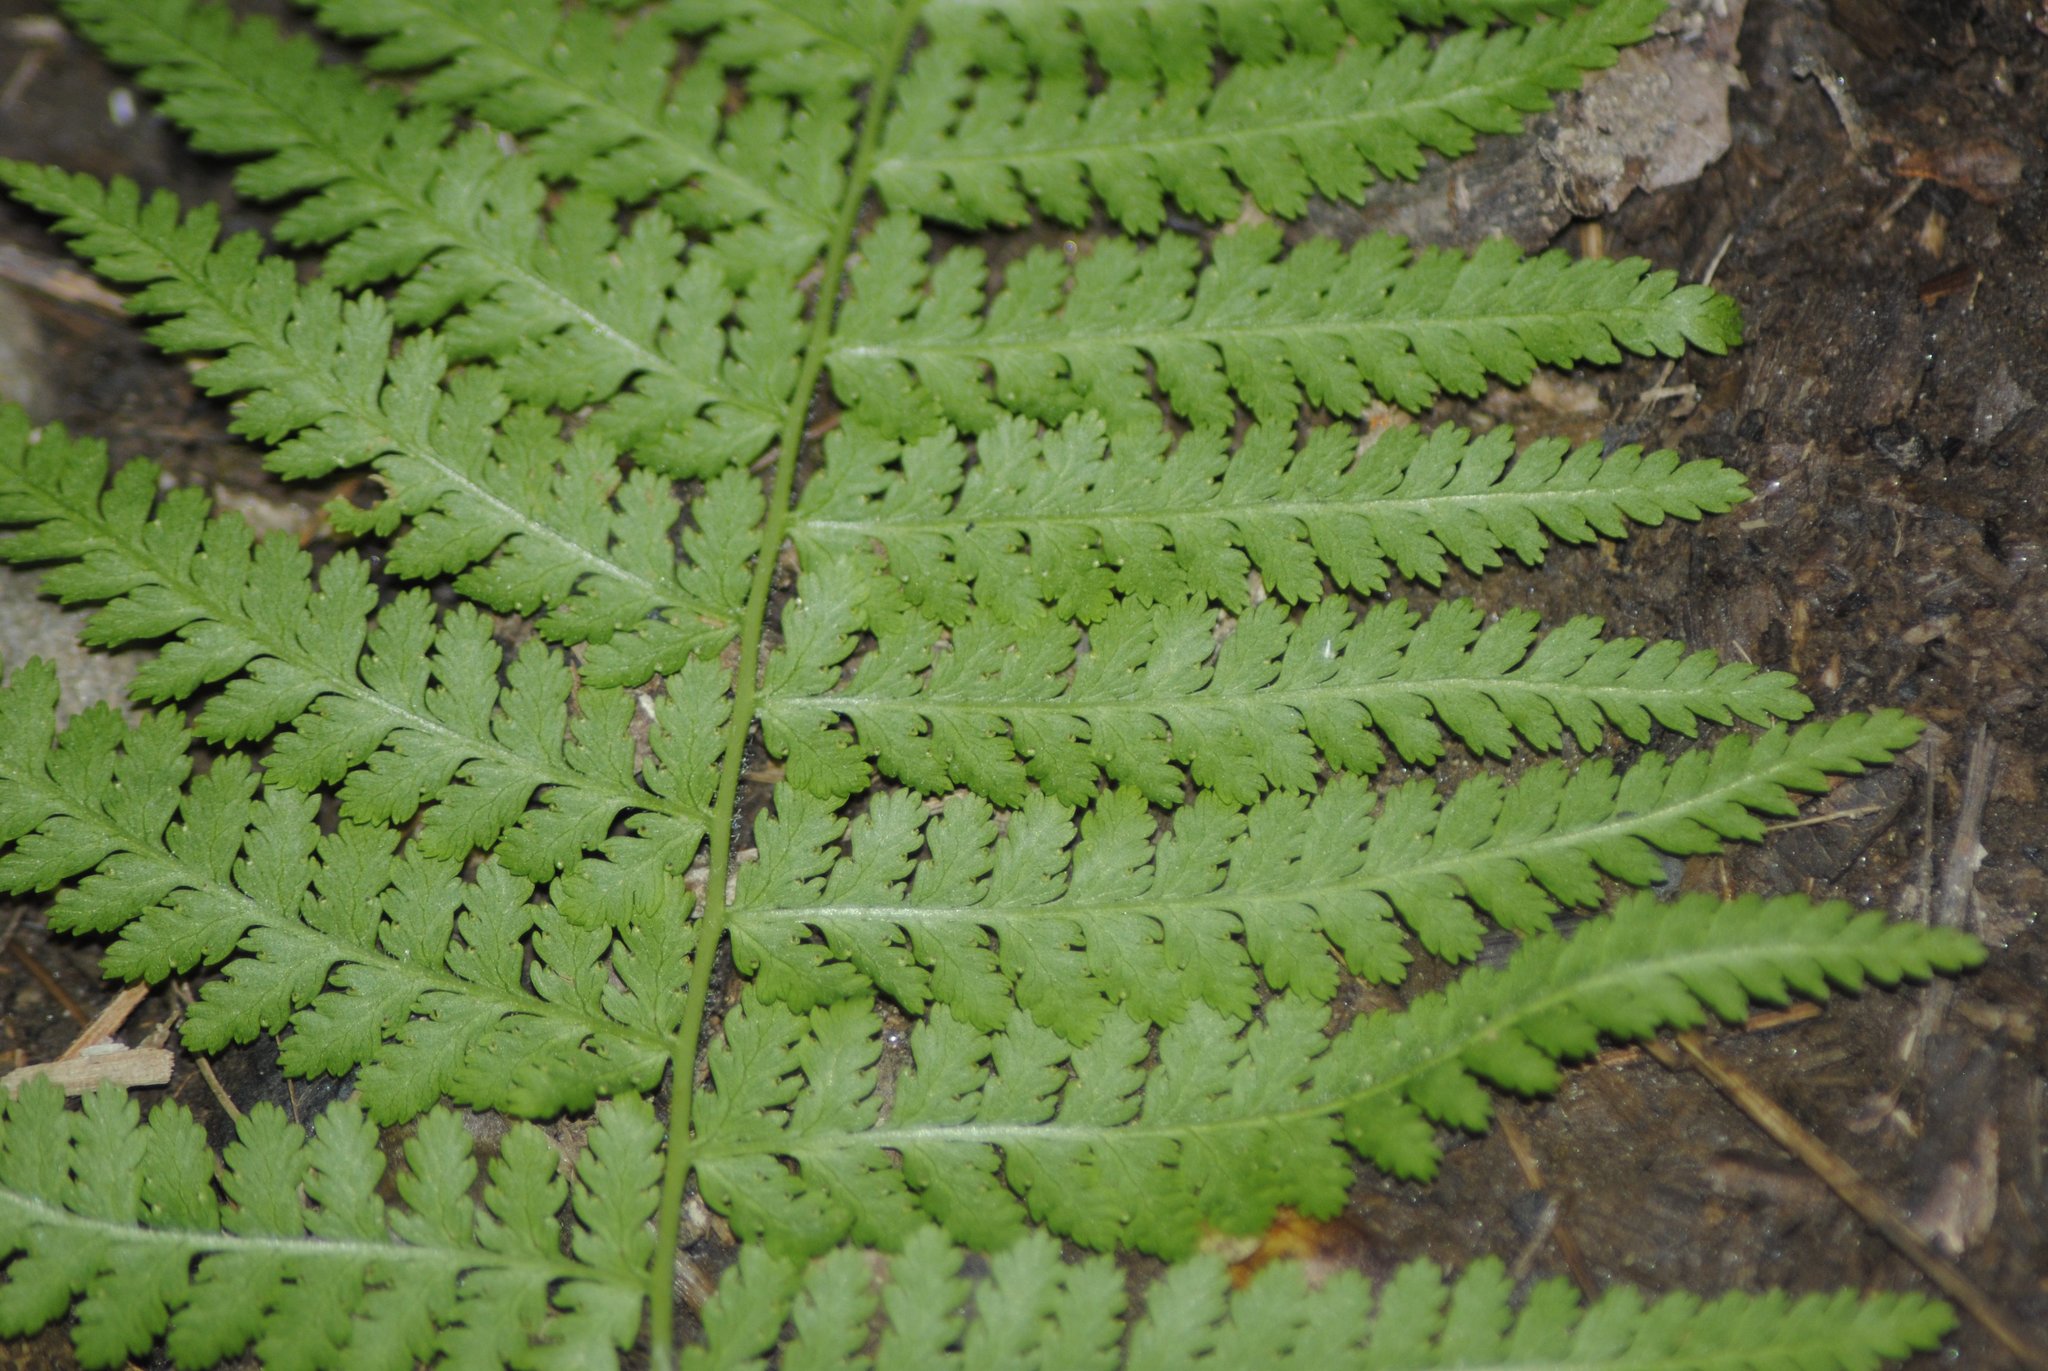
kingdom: Plantae
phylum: Tracheophyta
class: Polypodiopsida
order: Polypodiales
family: Dennstaedtiaceae
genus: Sitobolium
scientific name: Sitobolium punctilobum
